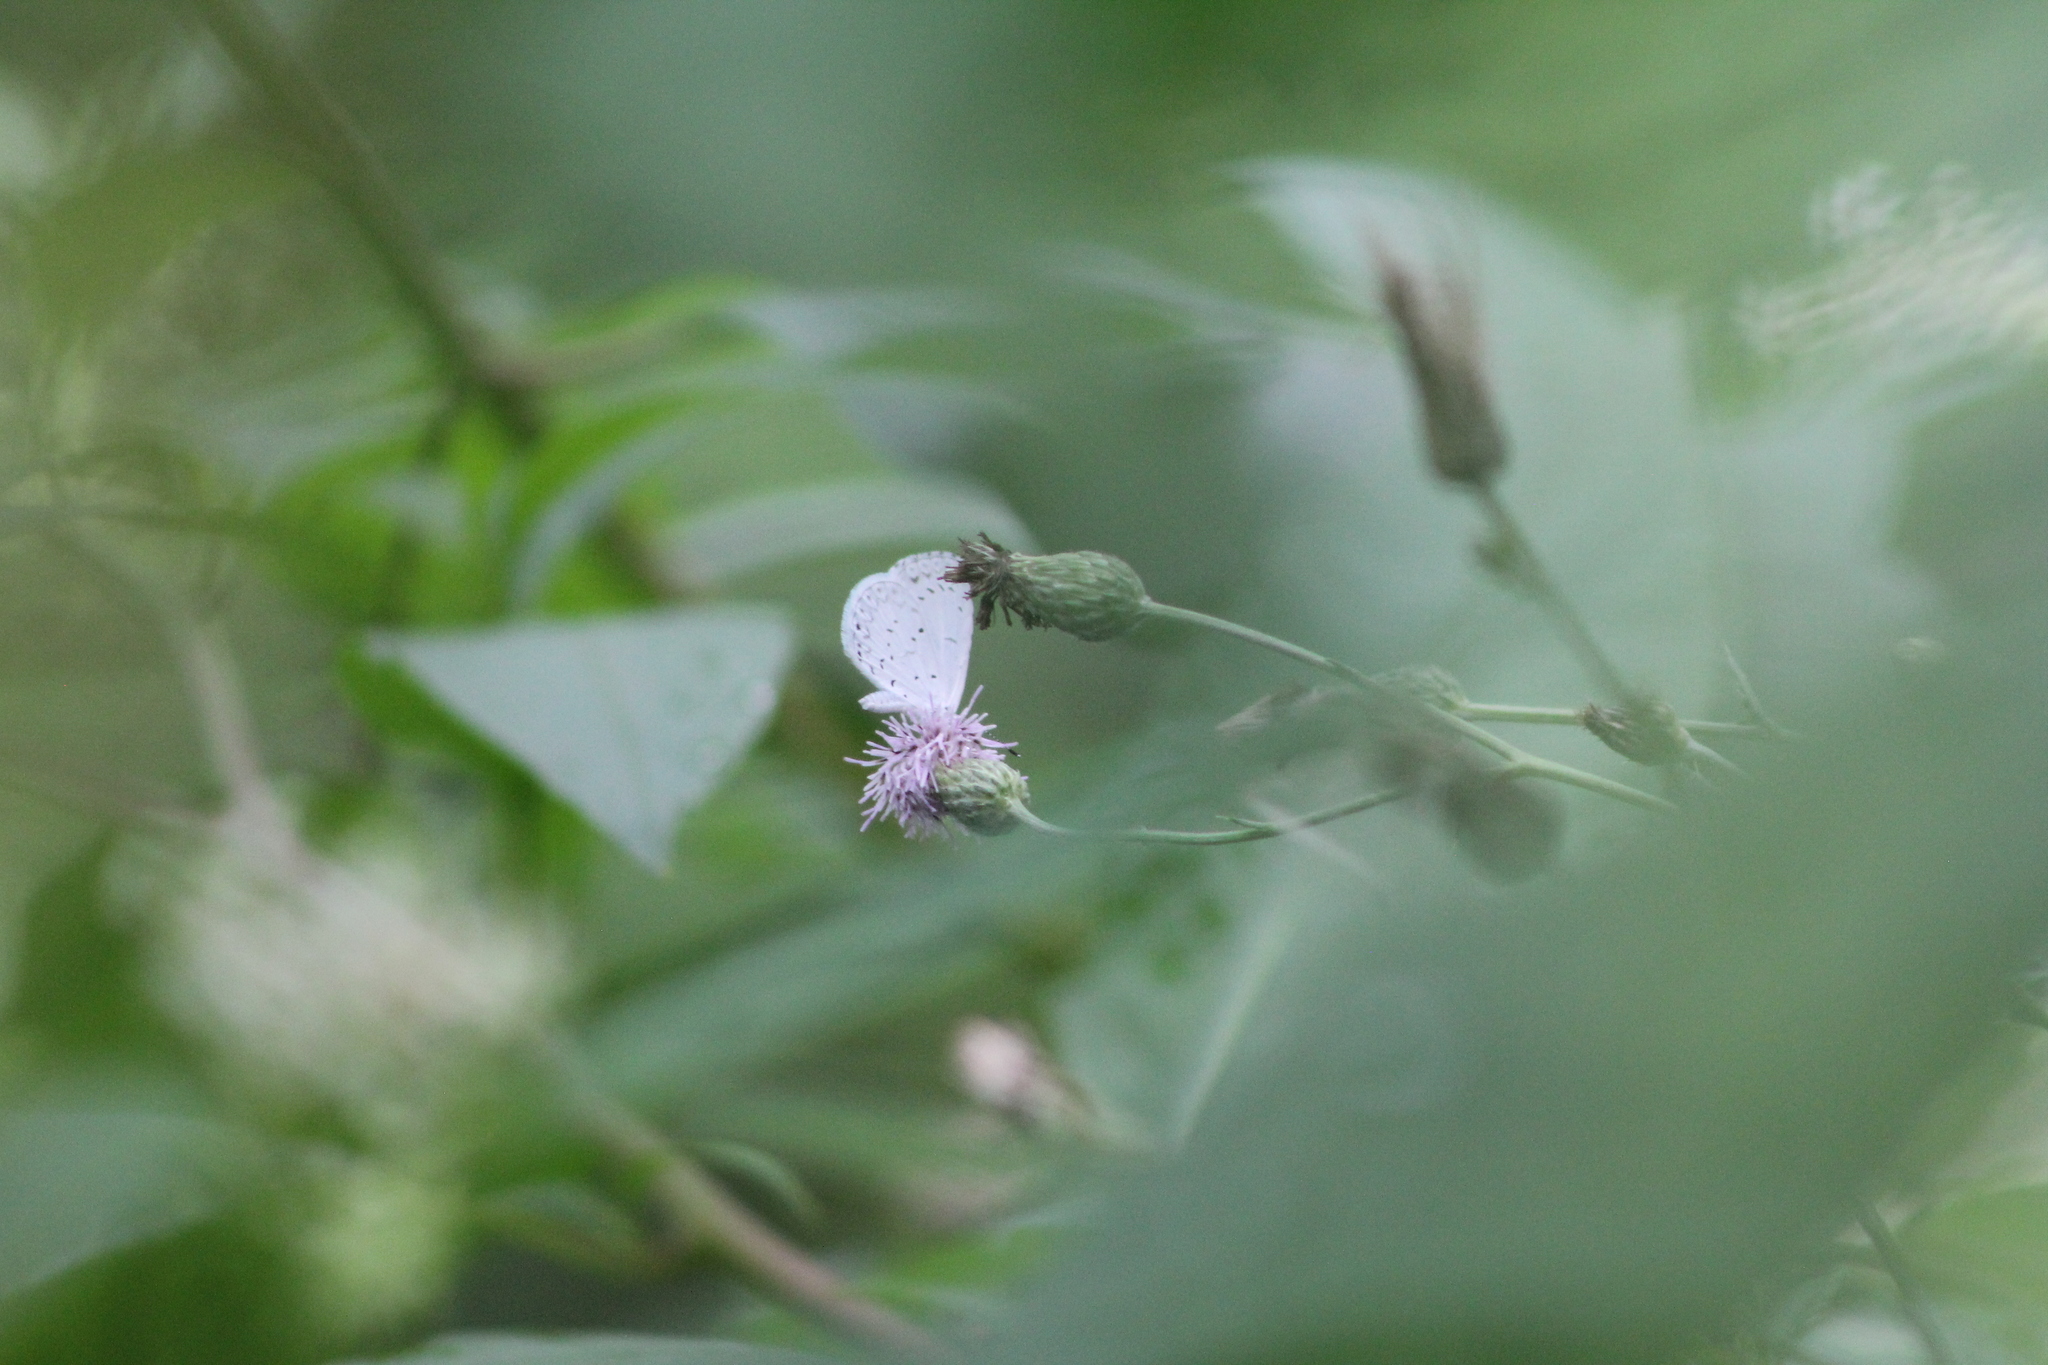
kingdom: Animalia
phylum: Arthropoda
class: Insecta
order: Lepidoptera
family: Lycaenidae
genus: Cyaniris
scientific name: Cyaniris neglecta
